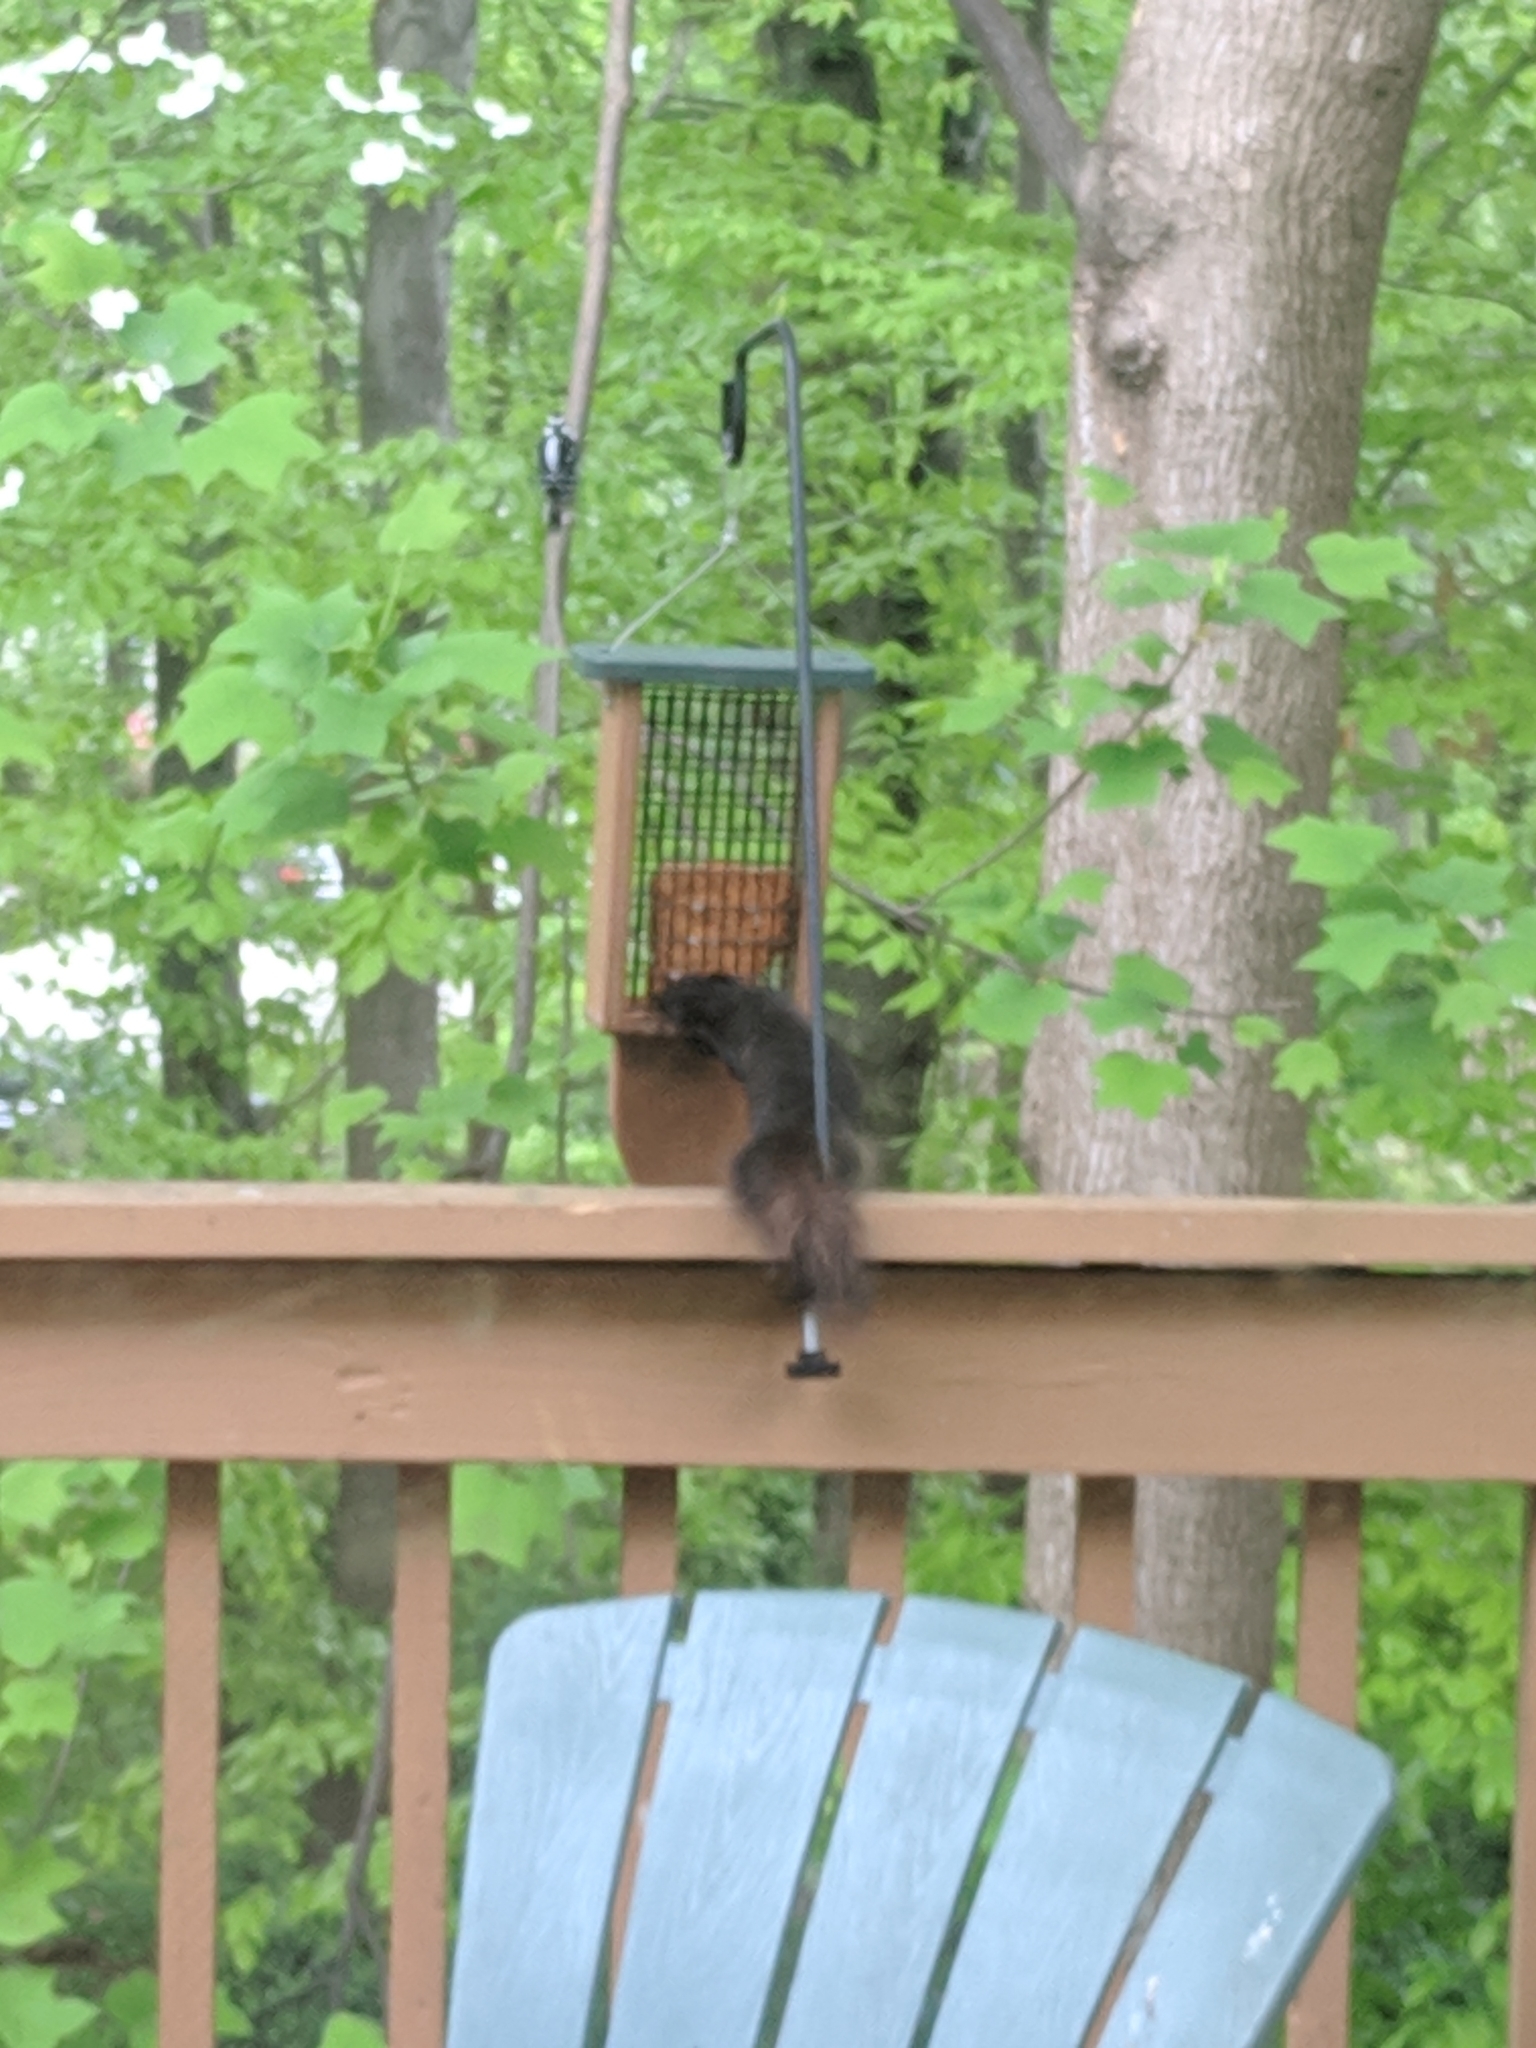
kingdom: Animalia
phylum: Chordata
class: Mammalia
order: Rodentia
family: Sciuridae
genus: Sciurus
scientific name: Sciurus carolinensis
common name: Eastern gray squirrel
